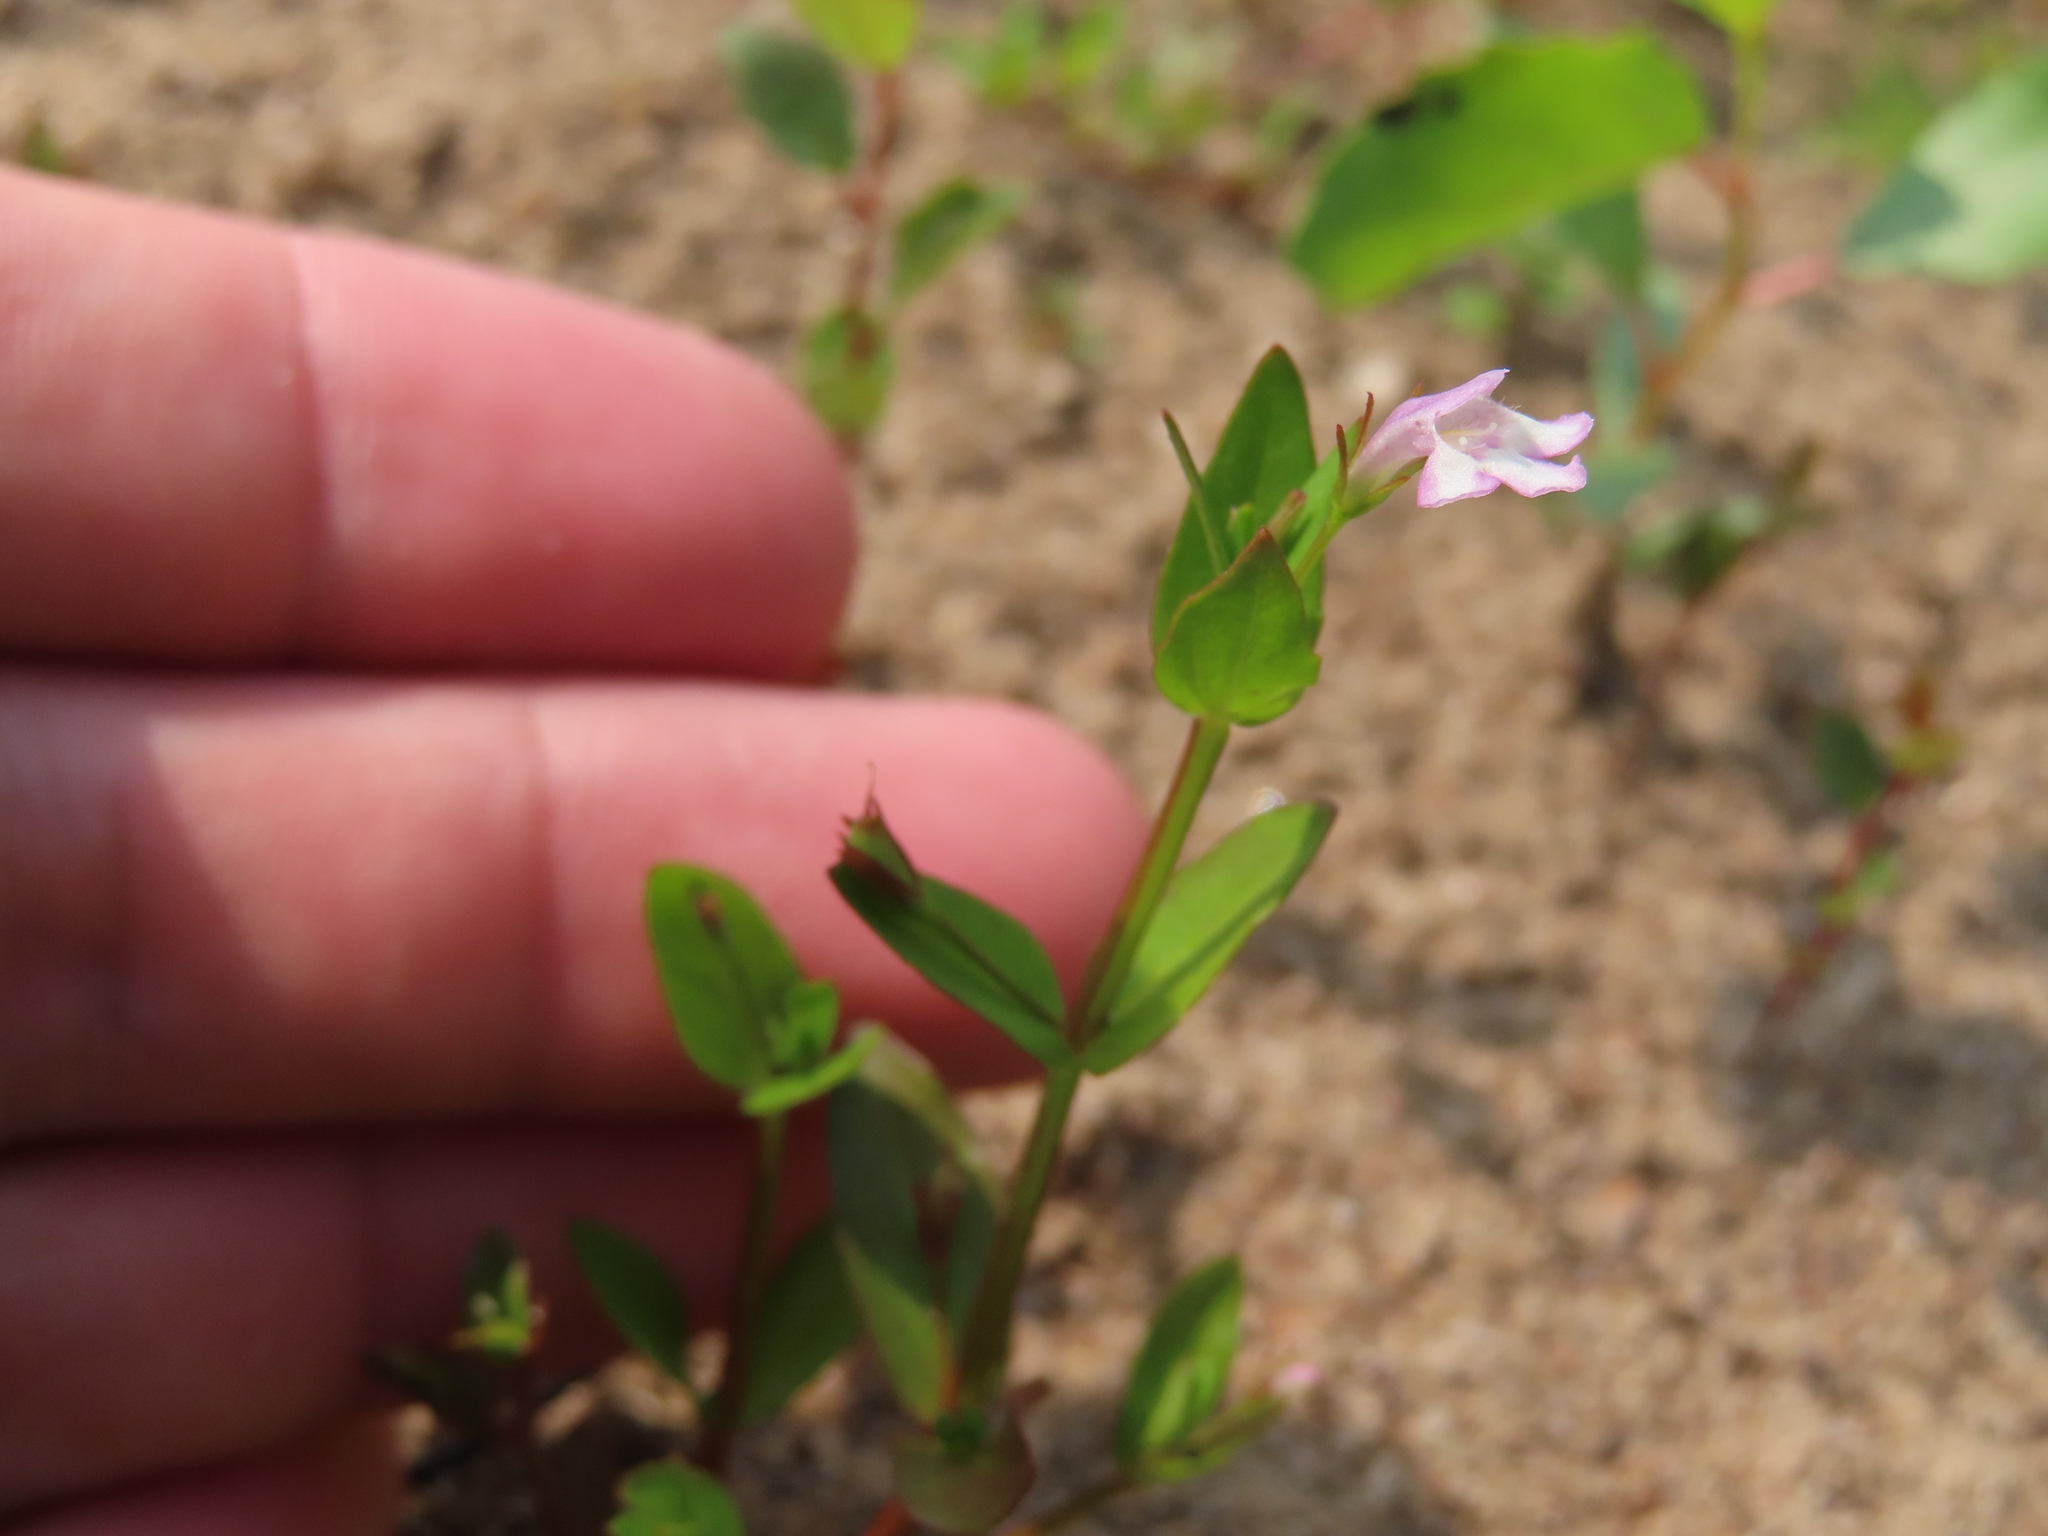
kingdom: Plantae
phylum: Tracheophyta
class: Magnoliopsida
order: Lamiales
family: Linderniaceae
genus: Lindernia
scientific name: Lindernia dubia
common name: Annual false pimpernel
